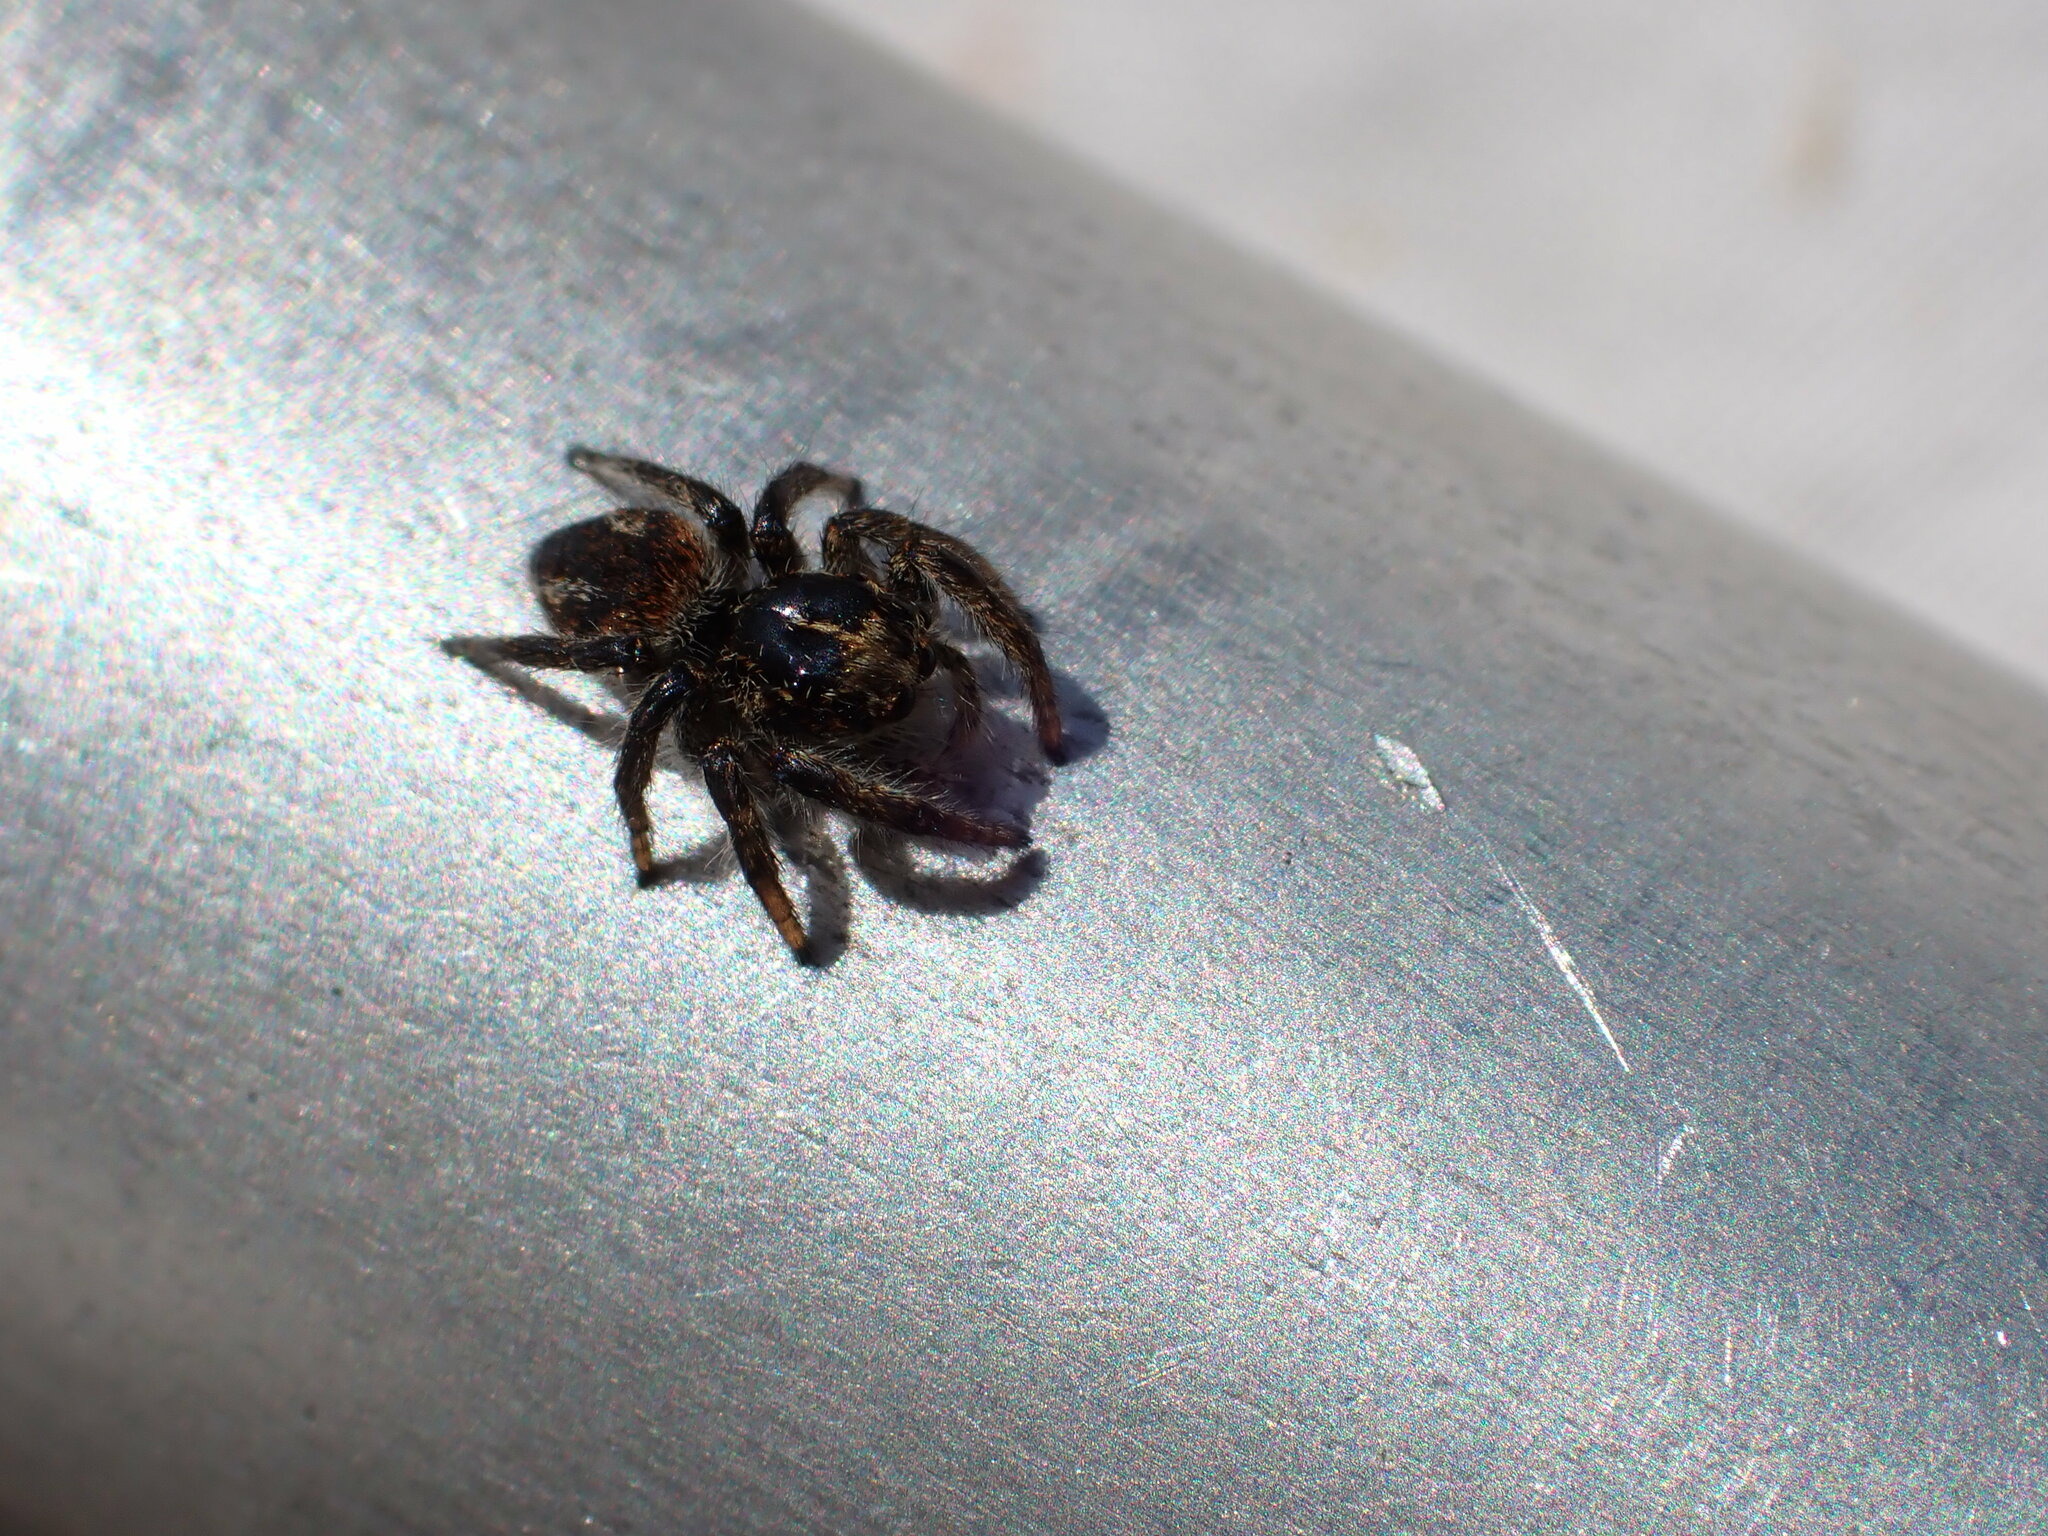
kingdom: Animalia
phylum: Arthropoda
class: Arachnida
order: Araneae
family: Salticidae
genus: Philaeus
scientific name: Philaeus chrysops
